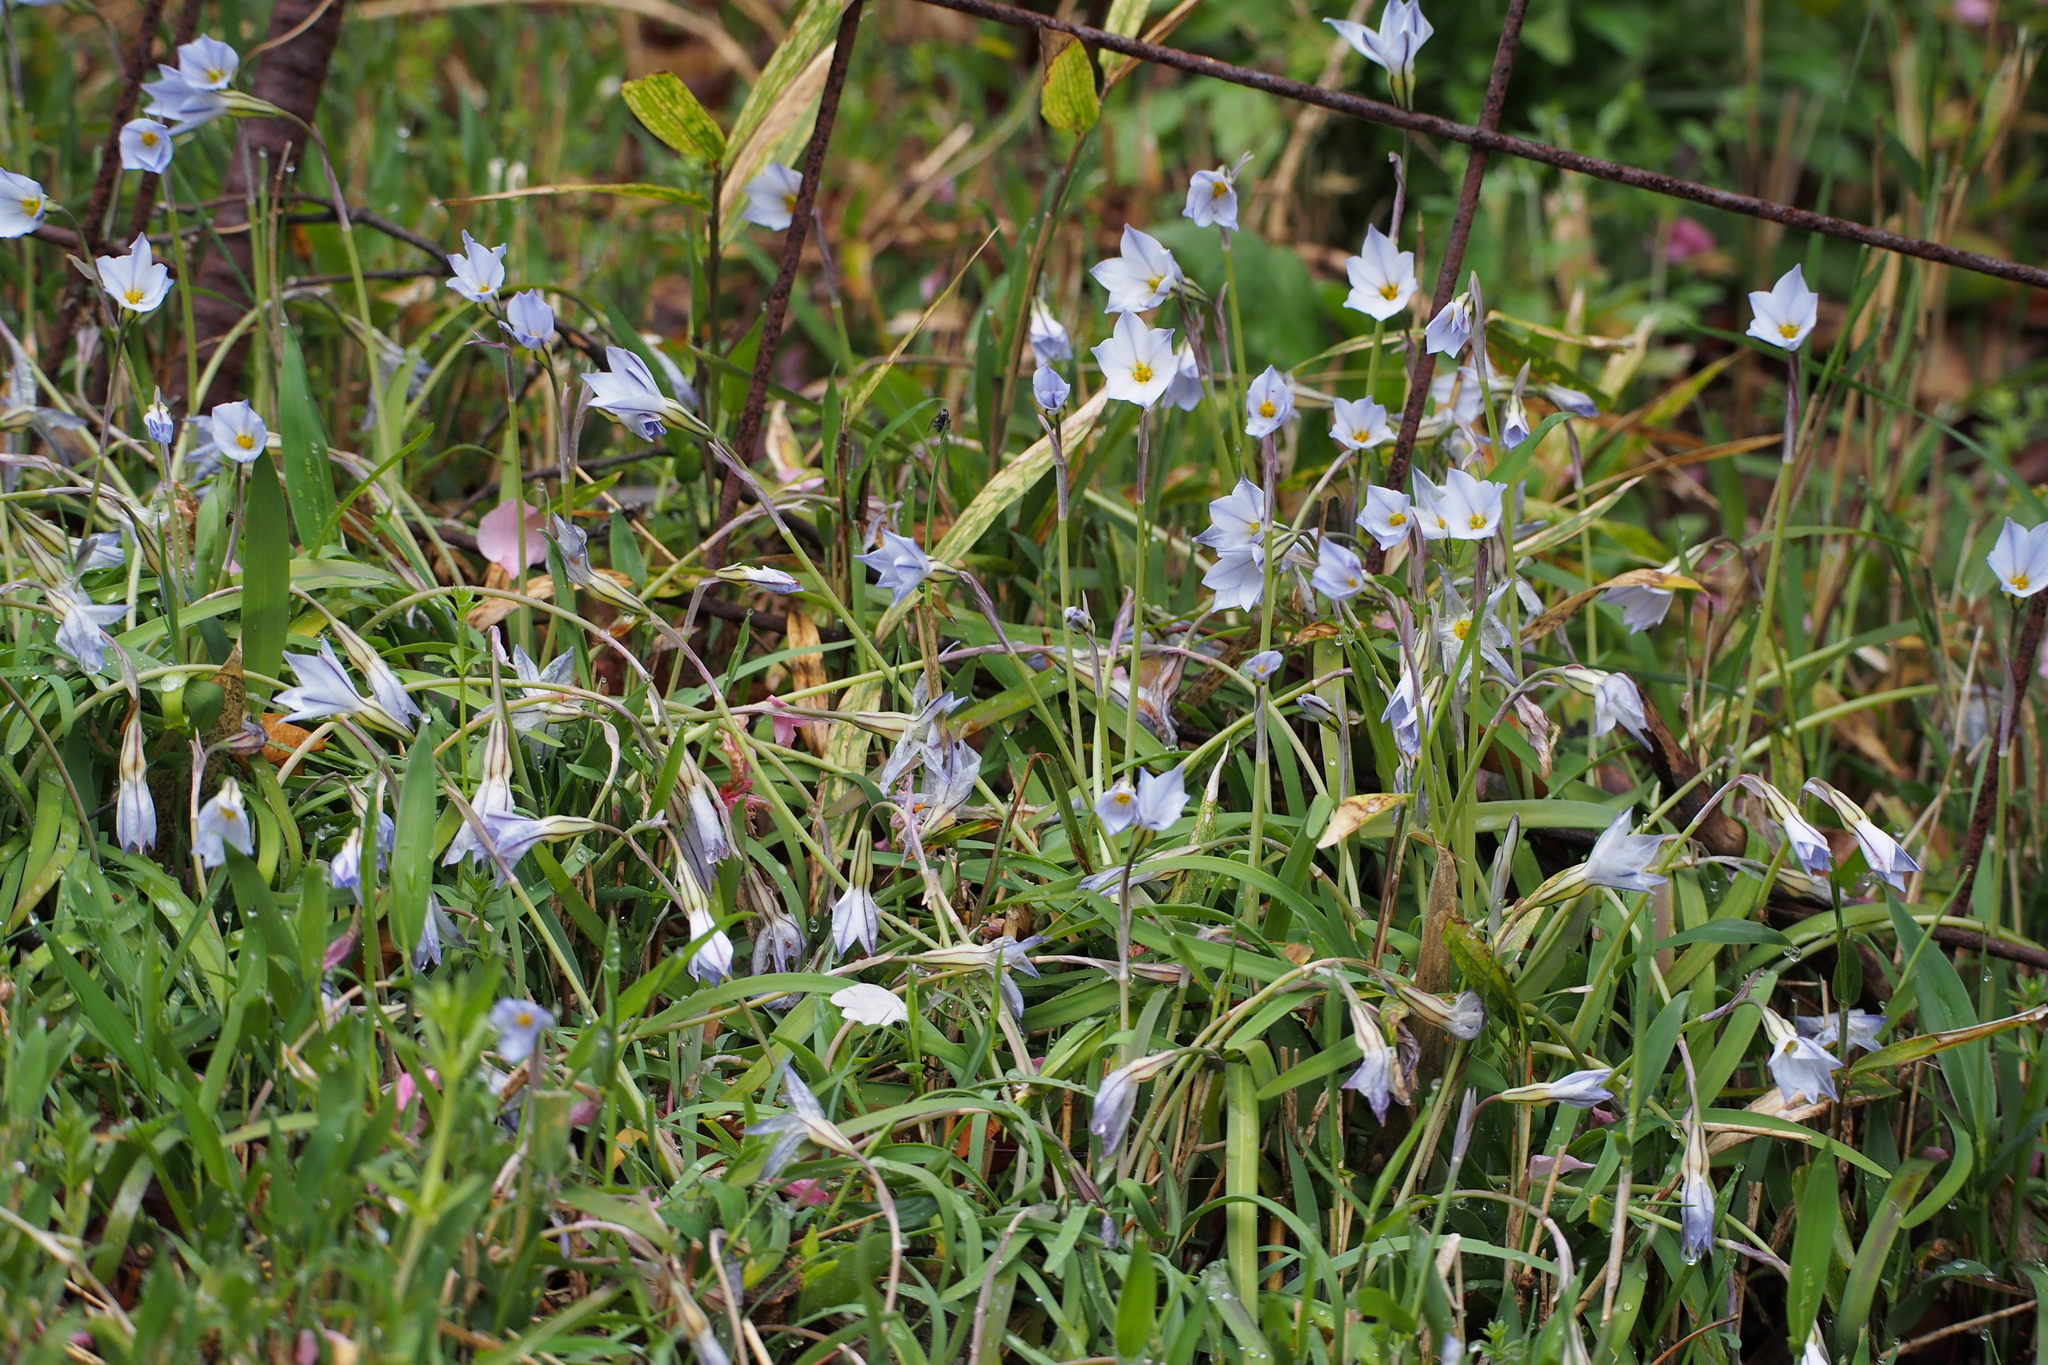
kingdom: Plantae
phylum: Tracheophyta
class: Liliopsida
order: Asparagales
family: Amaryllidaceae
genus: Ipheion
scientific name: Ipheion uniflorum
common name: Spring starflower
